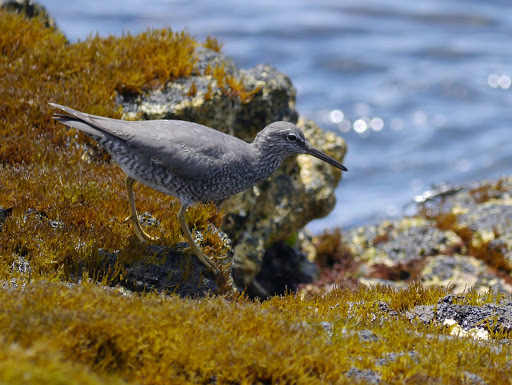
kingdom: Animalia
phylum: Chordata
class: Aves
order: Charadriiformes
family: Scolopacidae
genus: Tringa
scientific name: Tringa incana
